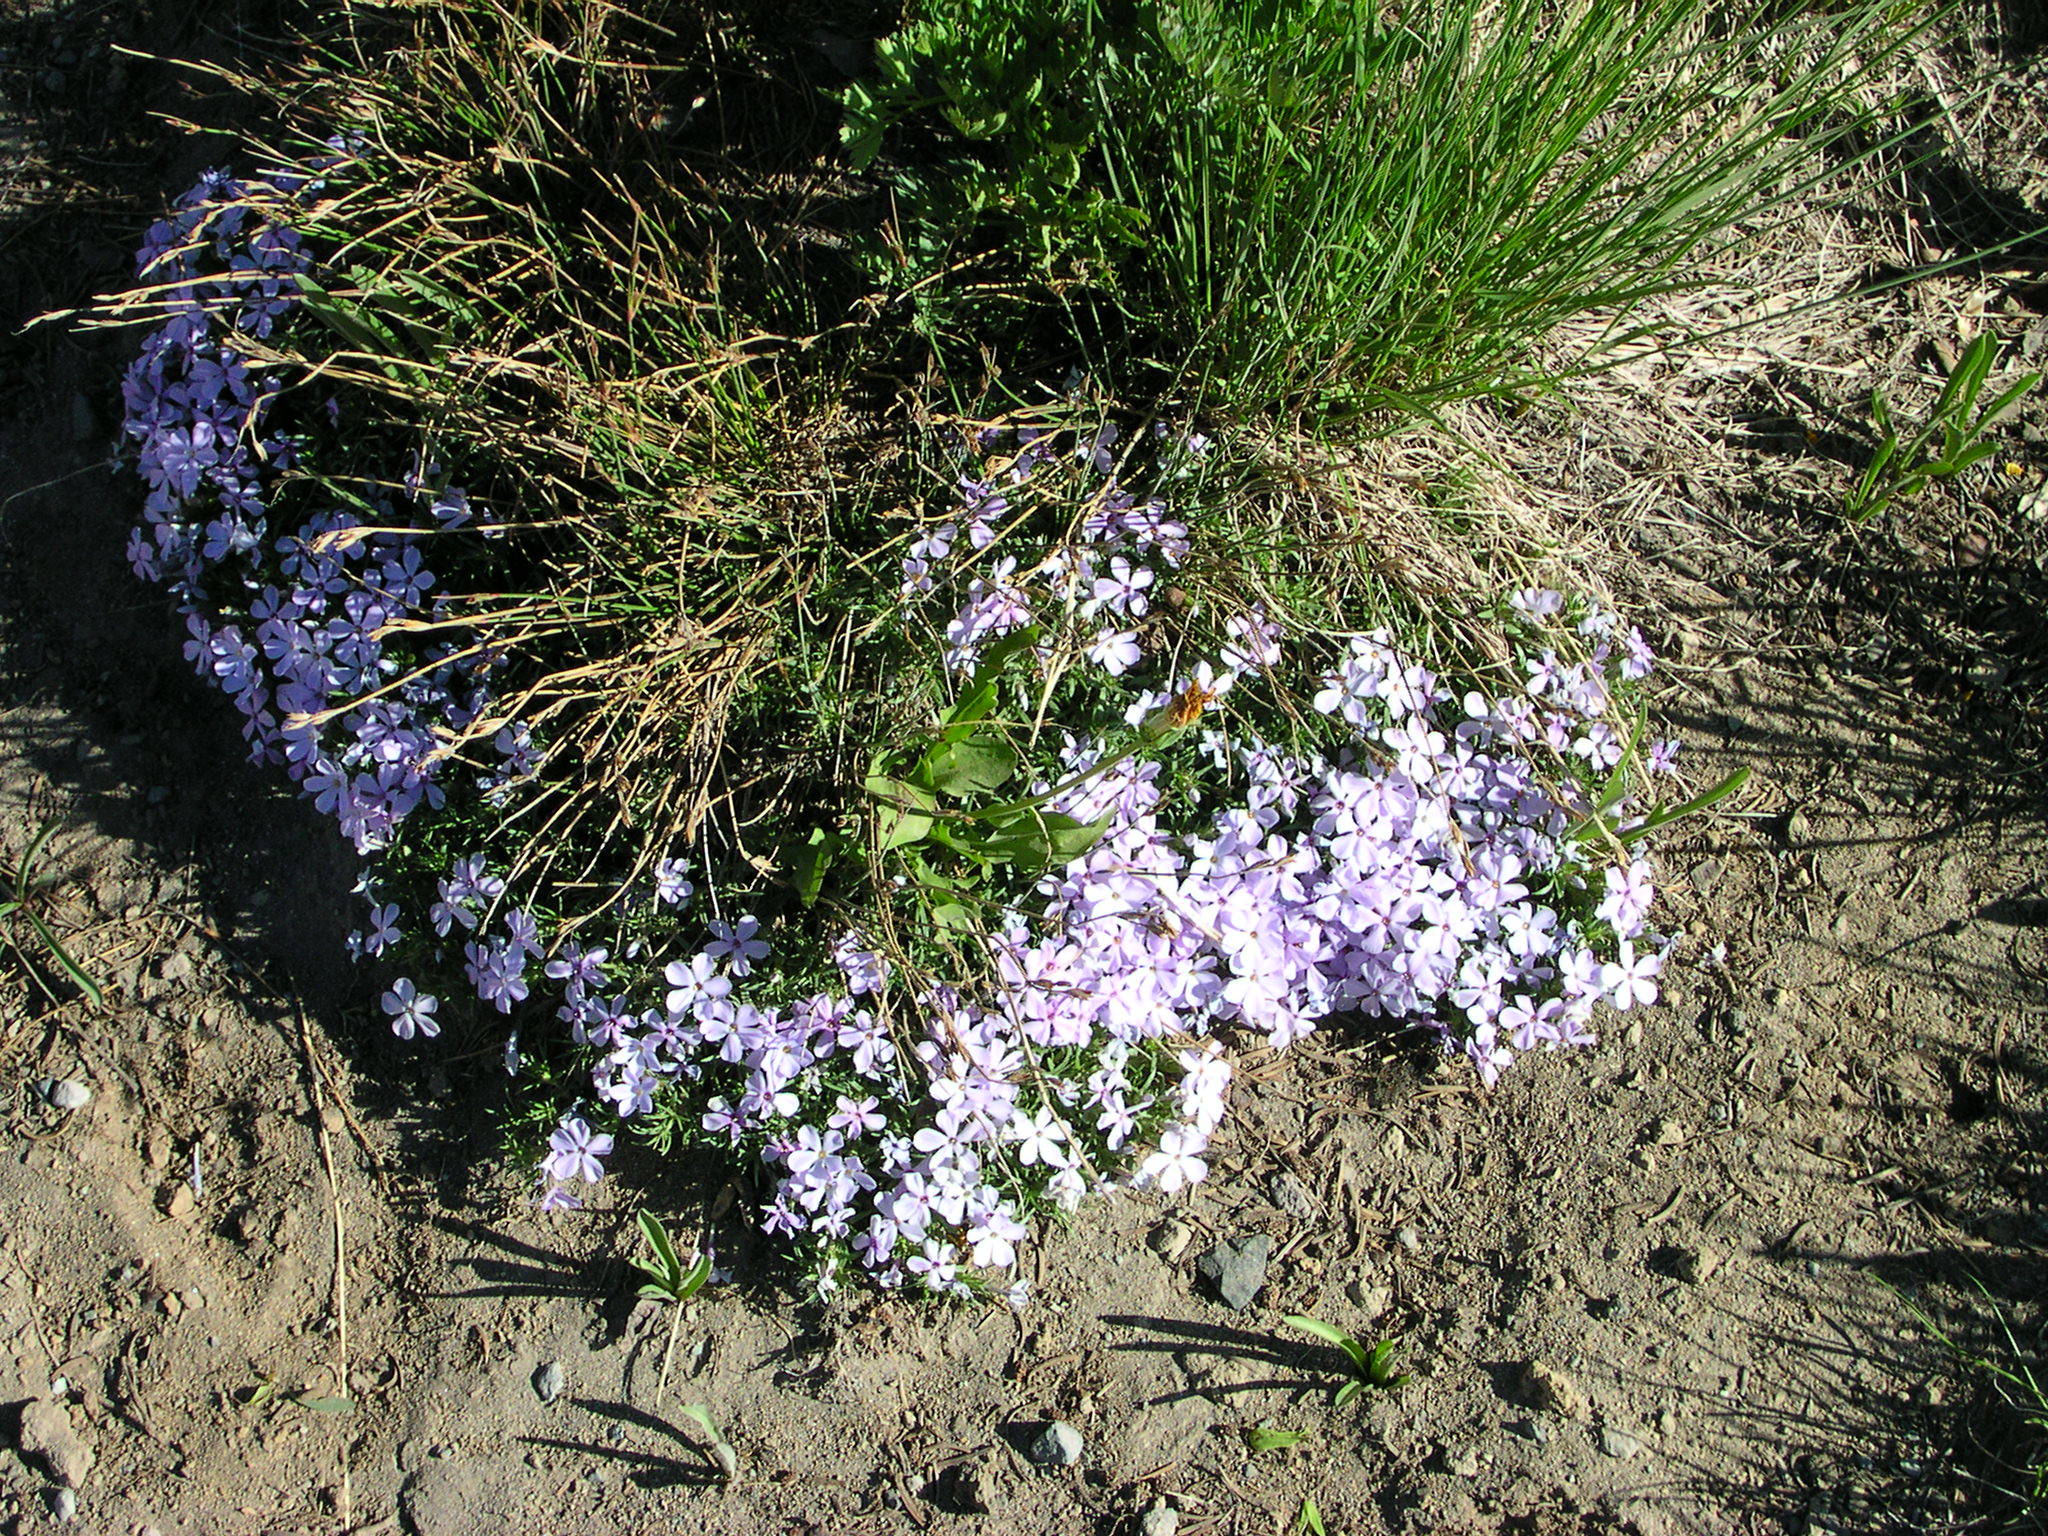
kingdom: Plantae
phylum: Tracheophyta
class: Magnoliopsida
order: Ericales
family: Polemoniaceae
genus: Phlox
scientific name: Phlox diffusa
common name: Mat phlox
